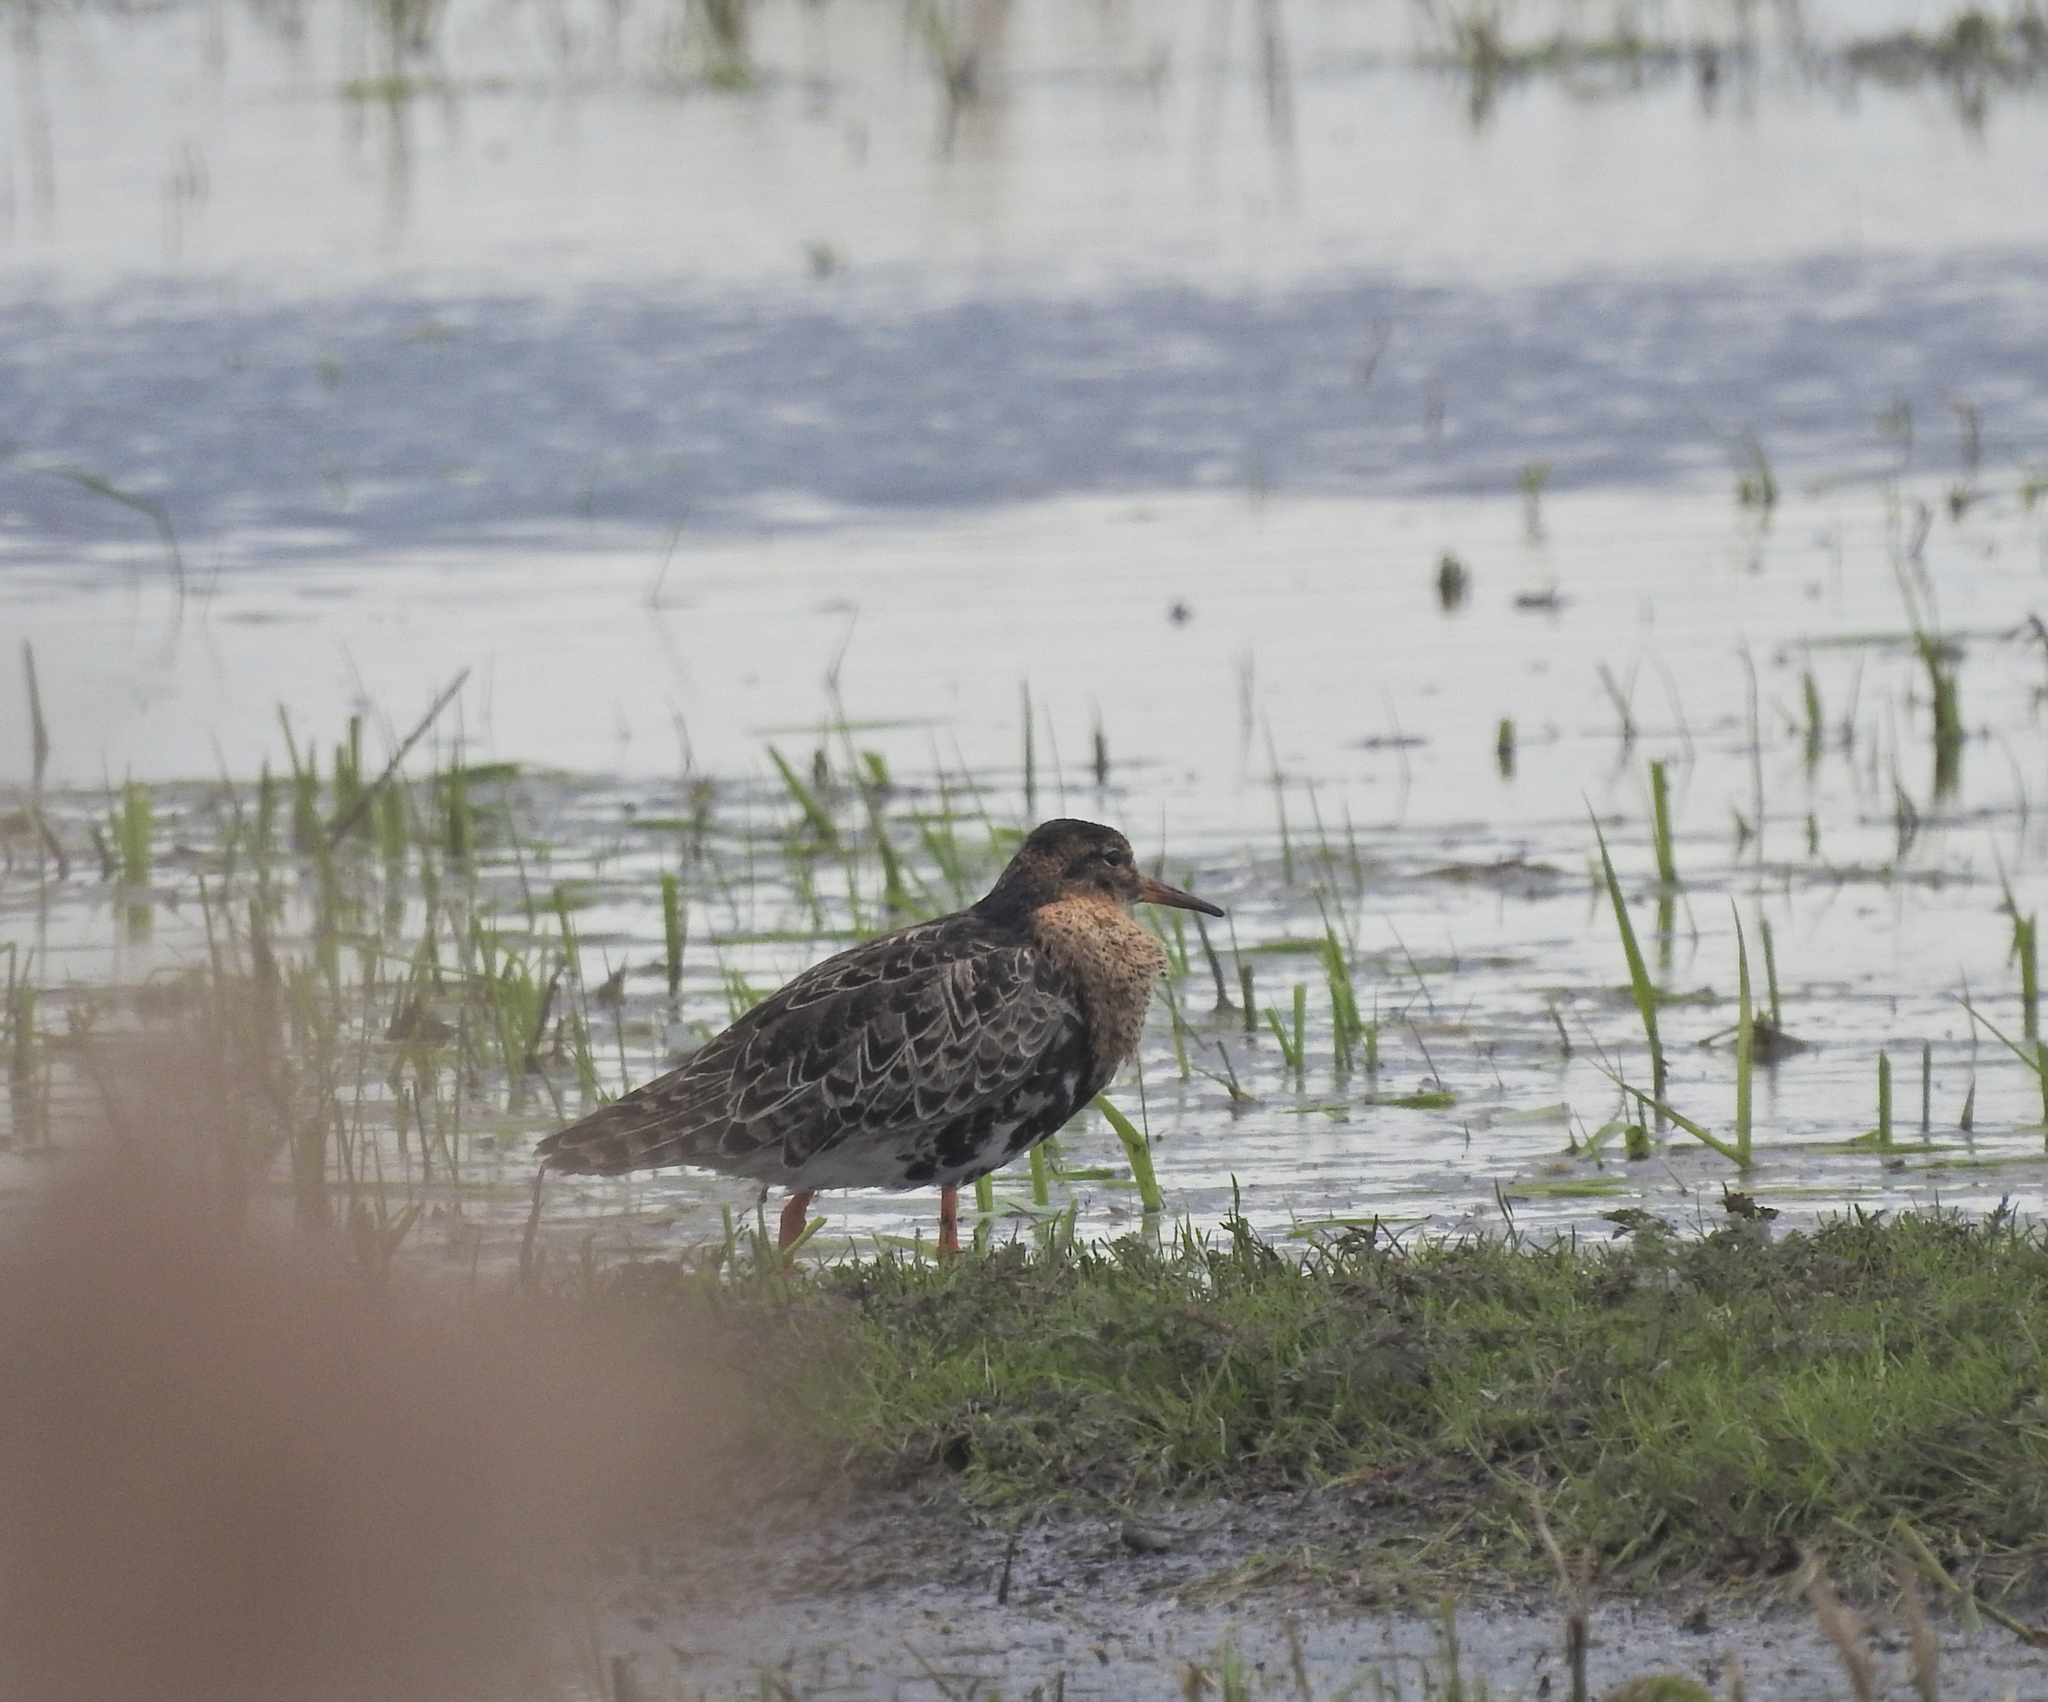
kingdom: Animalia
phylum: Chordata
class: Aves
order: Charadriiformes
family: Scolopacidae
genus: Calidris
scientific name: Calidris pugnax
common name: Ruff
